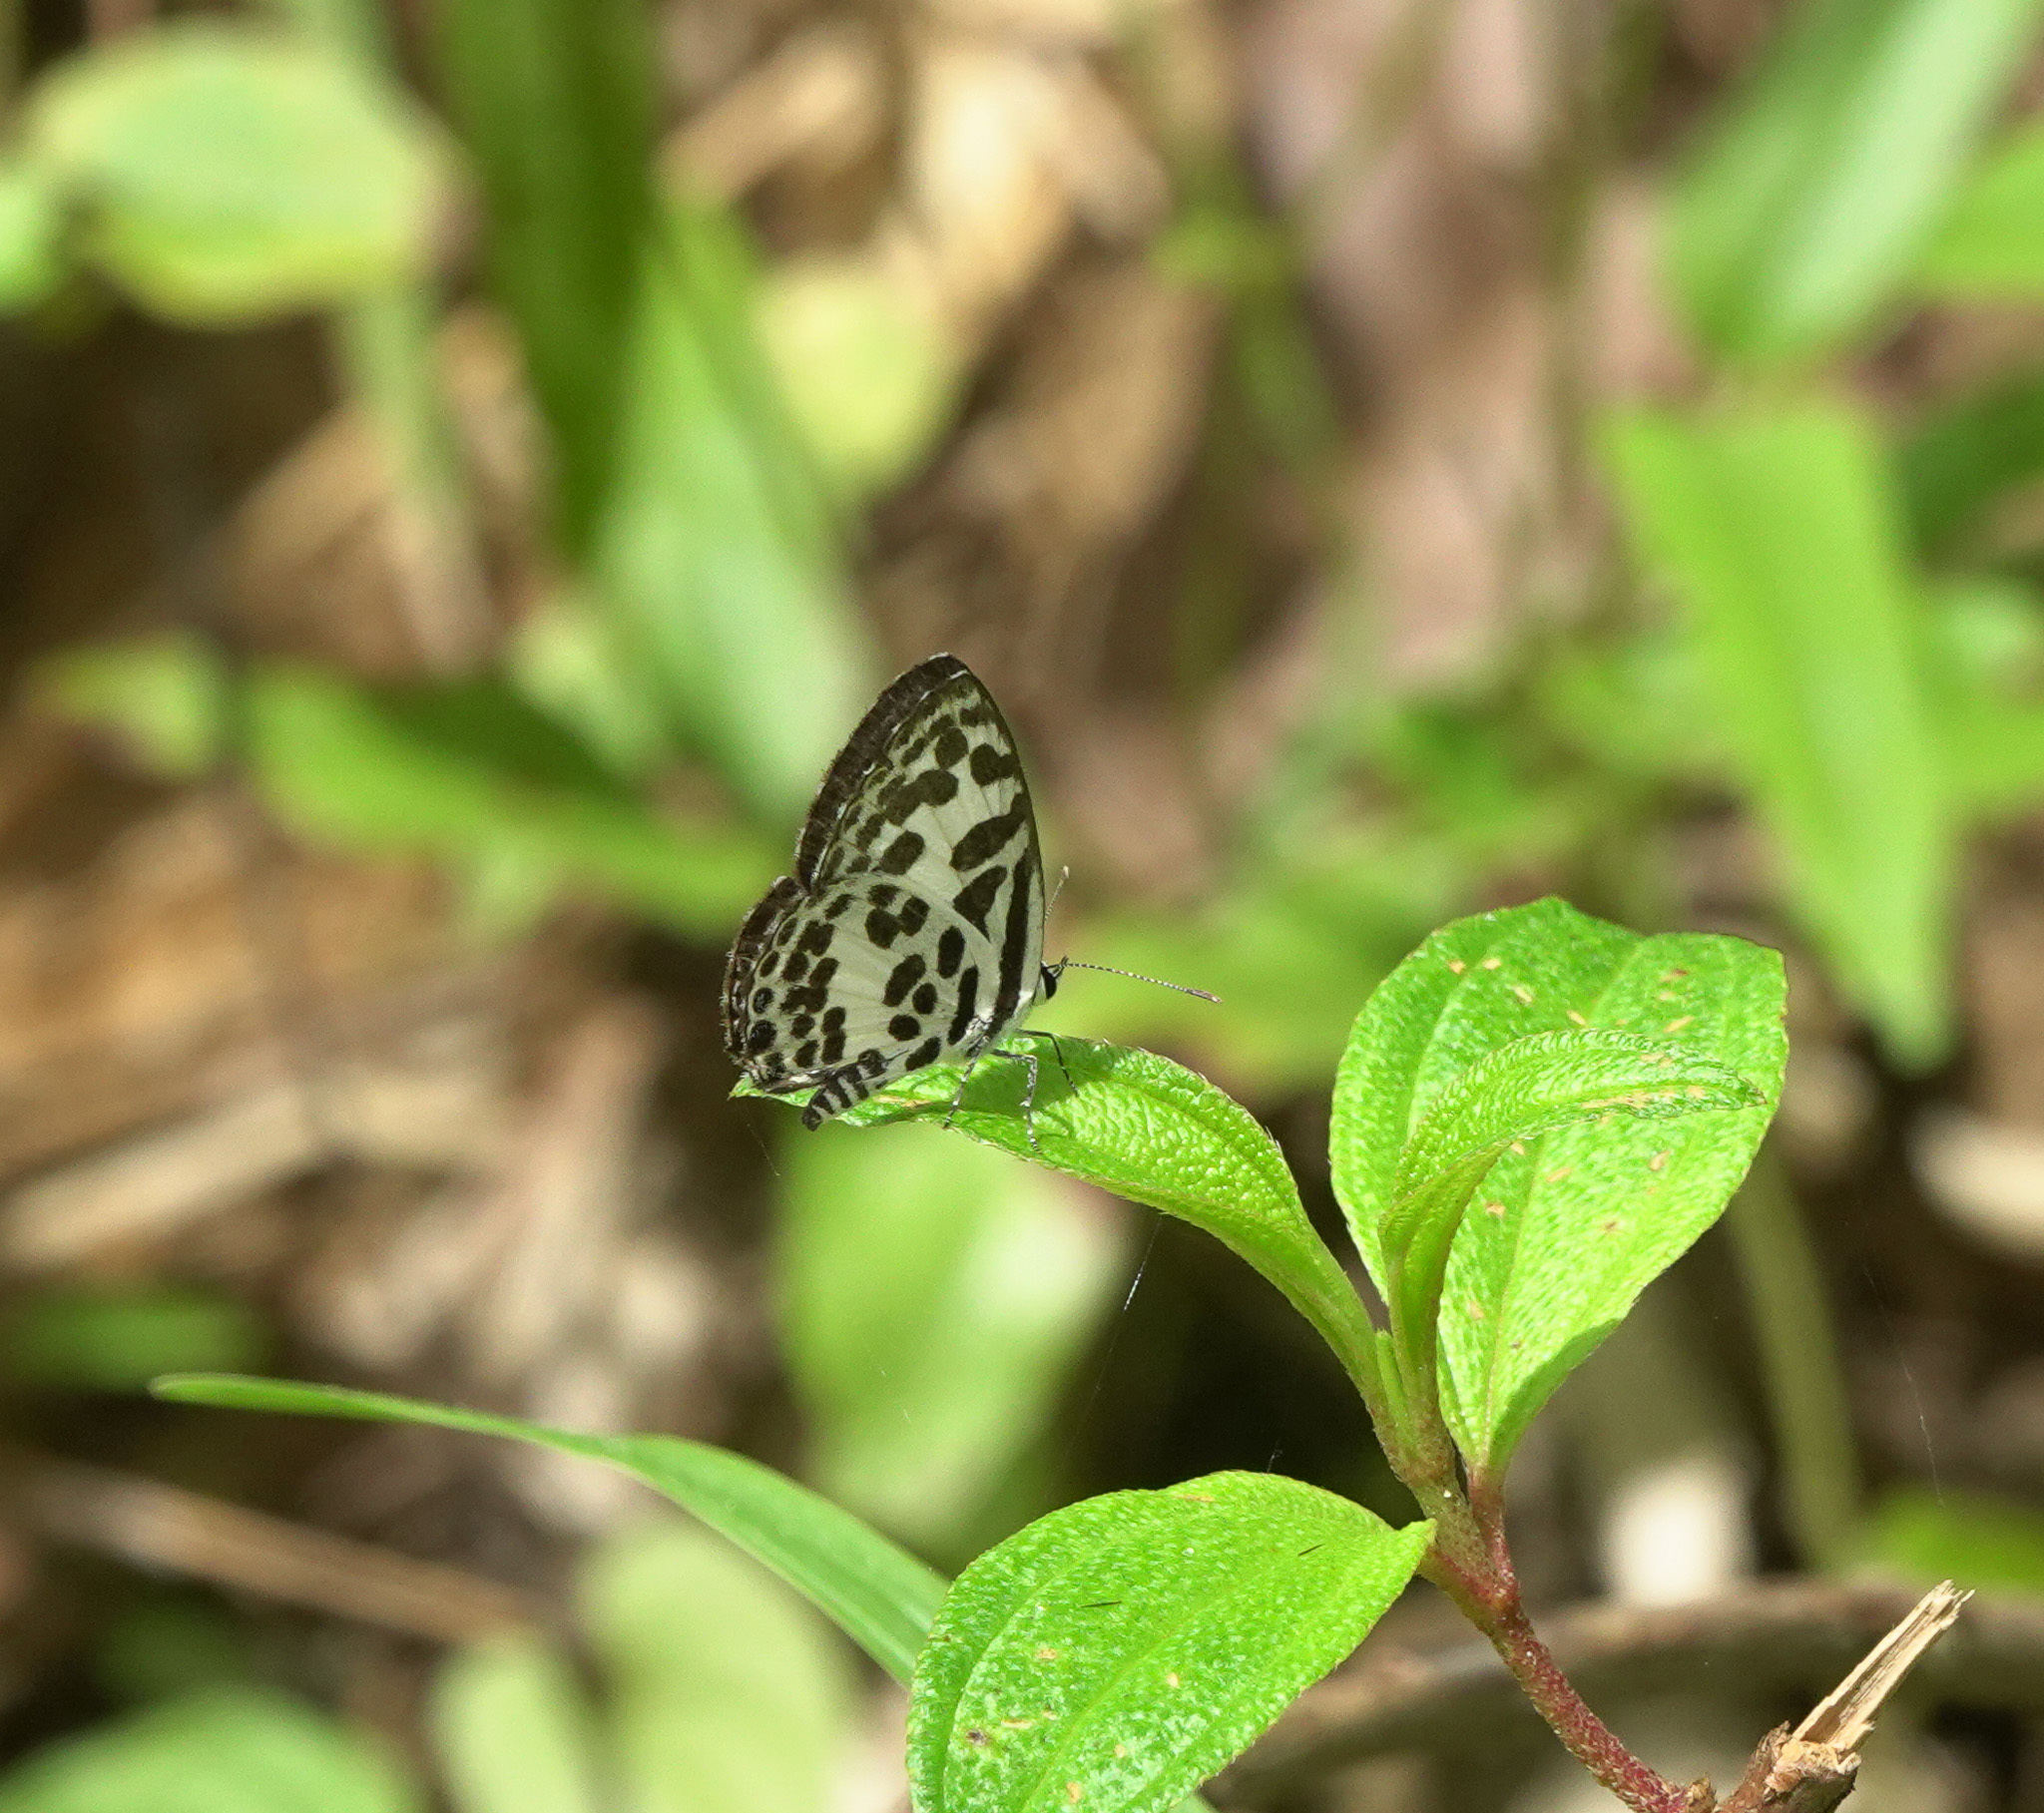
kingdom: Animalia
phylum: Arthropoda
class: Insecta
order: Lepidoptera
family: Lycaenidae
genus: Castalius
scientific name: Castalius rosimon
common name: Common pierrot
